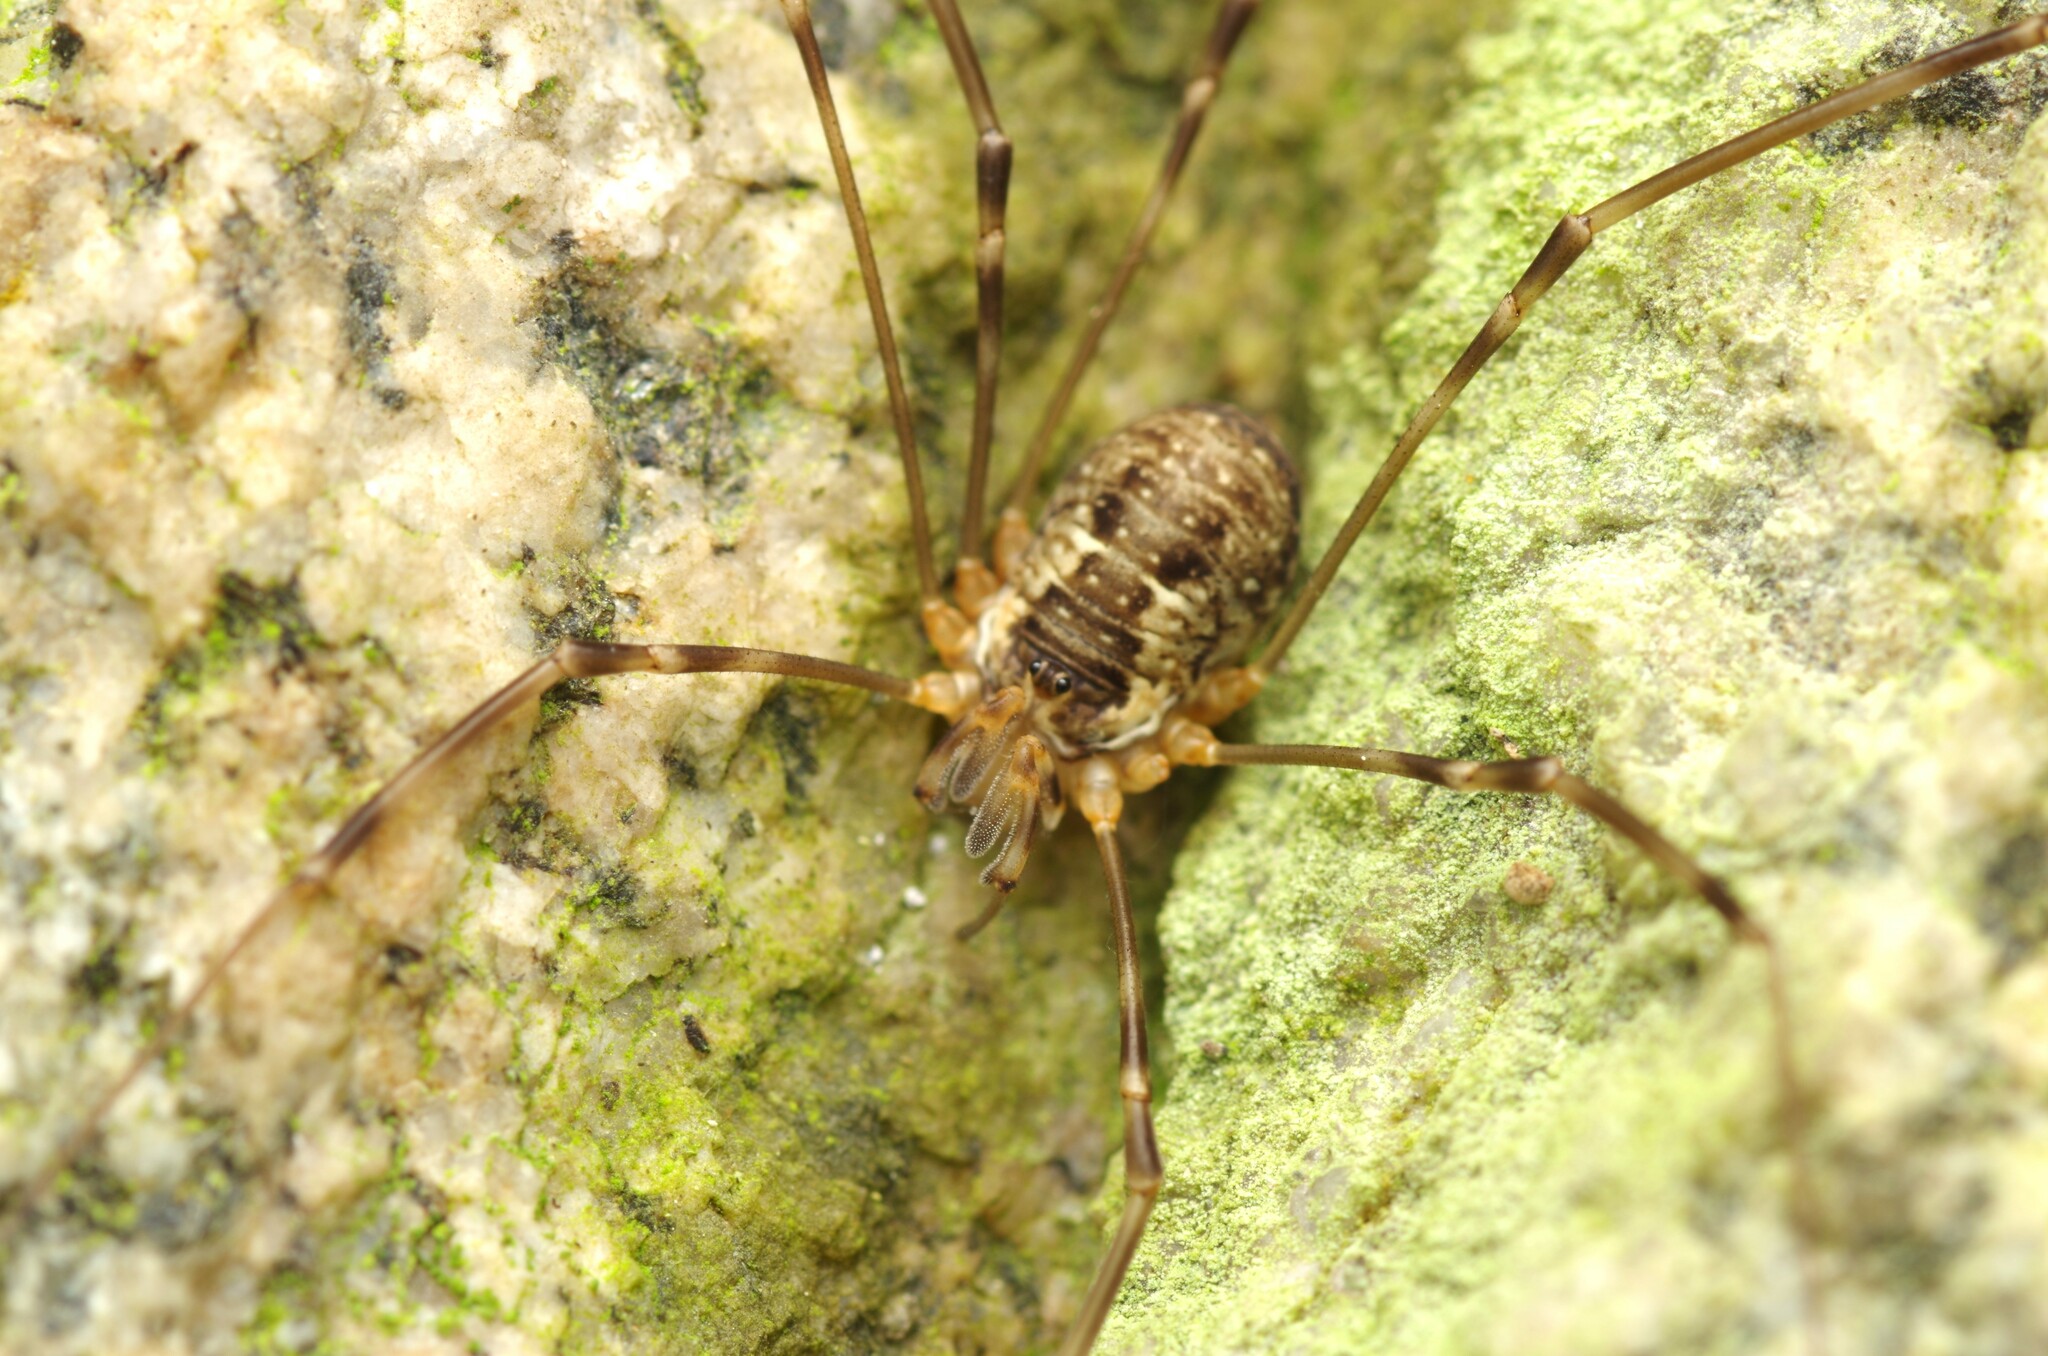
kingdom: Animalia
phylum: Arthropoda
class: Arachnida
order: Opiliones
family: Phalangiidae
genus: Dicranopalpus
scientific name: Dicranopalpus catariegensis
